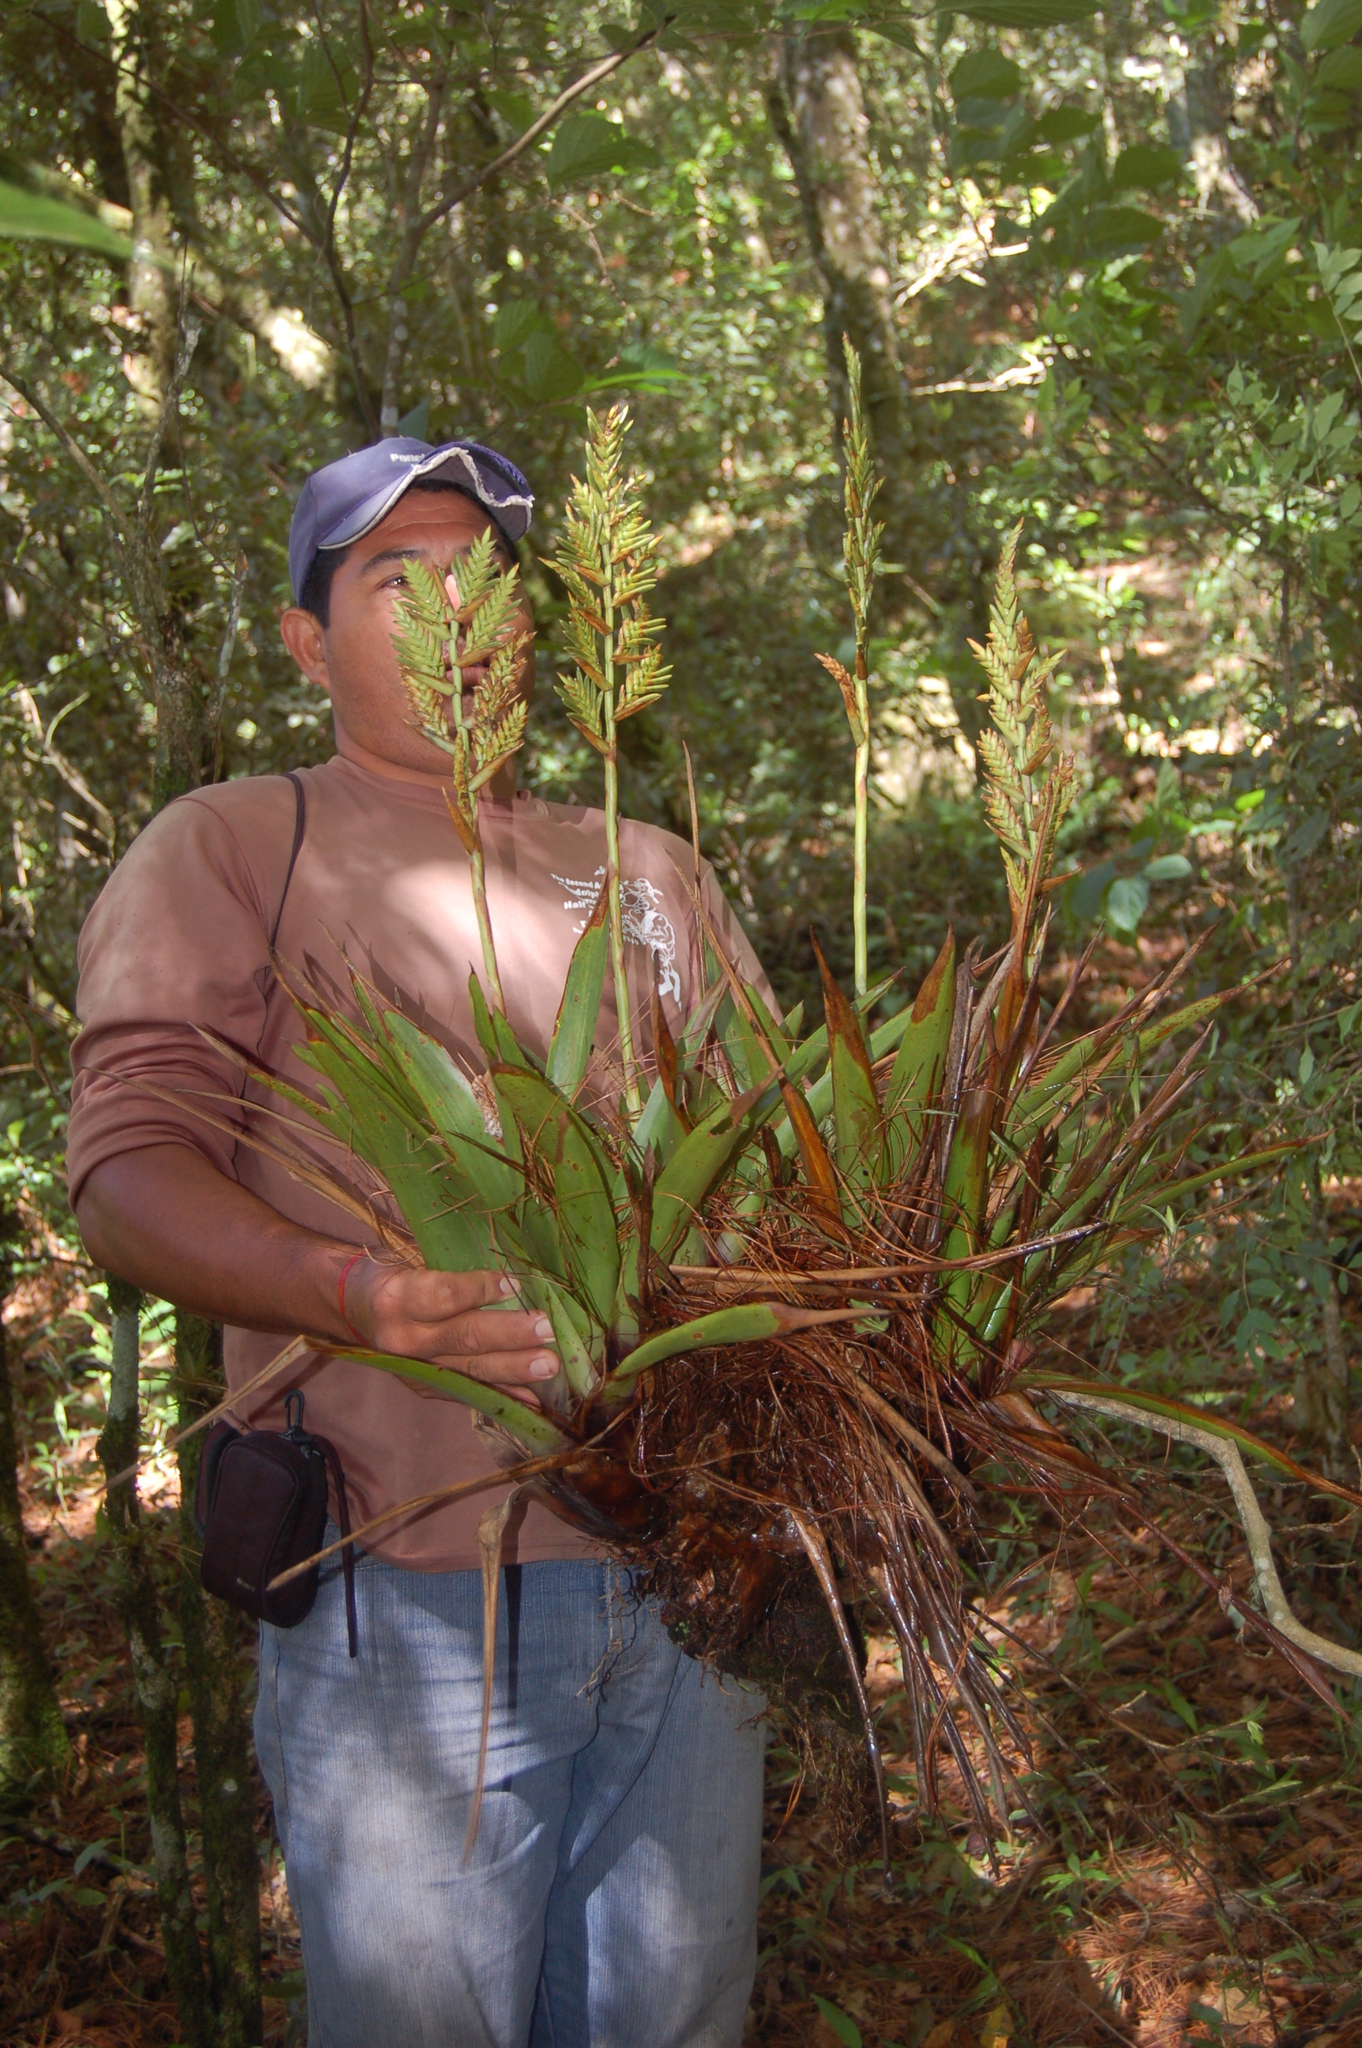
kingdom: Plantae
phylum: Tracheophyta
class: Liliopsida
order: Poales
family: Bromeliaceae
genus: Racinaea
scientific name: Racinaea rothschuhiana
